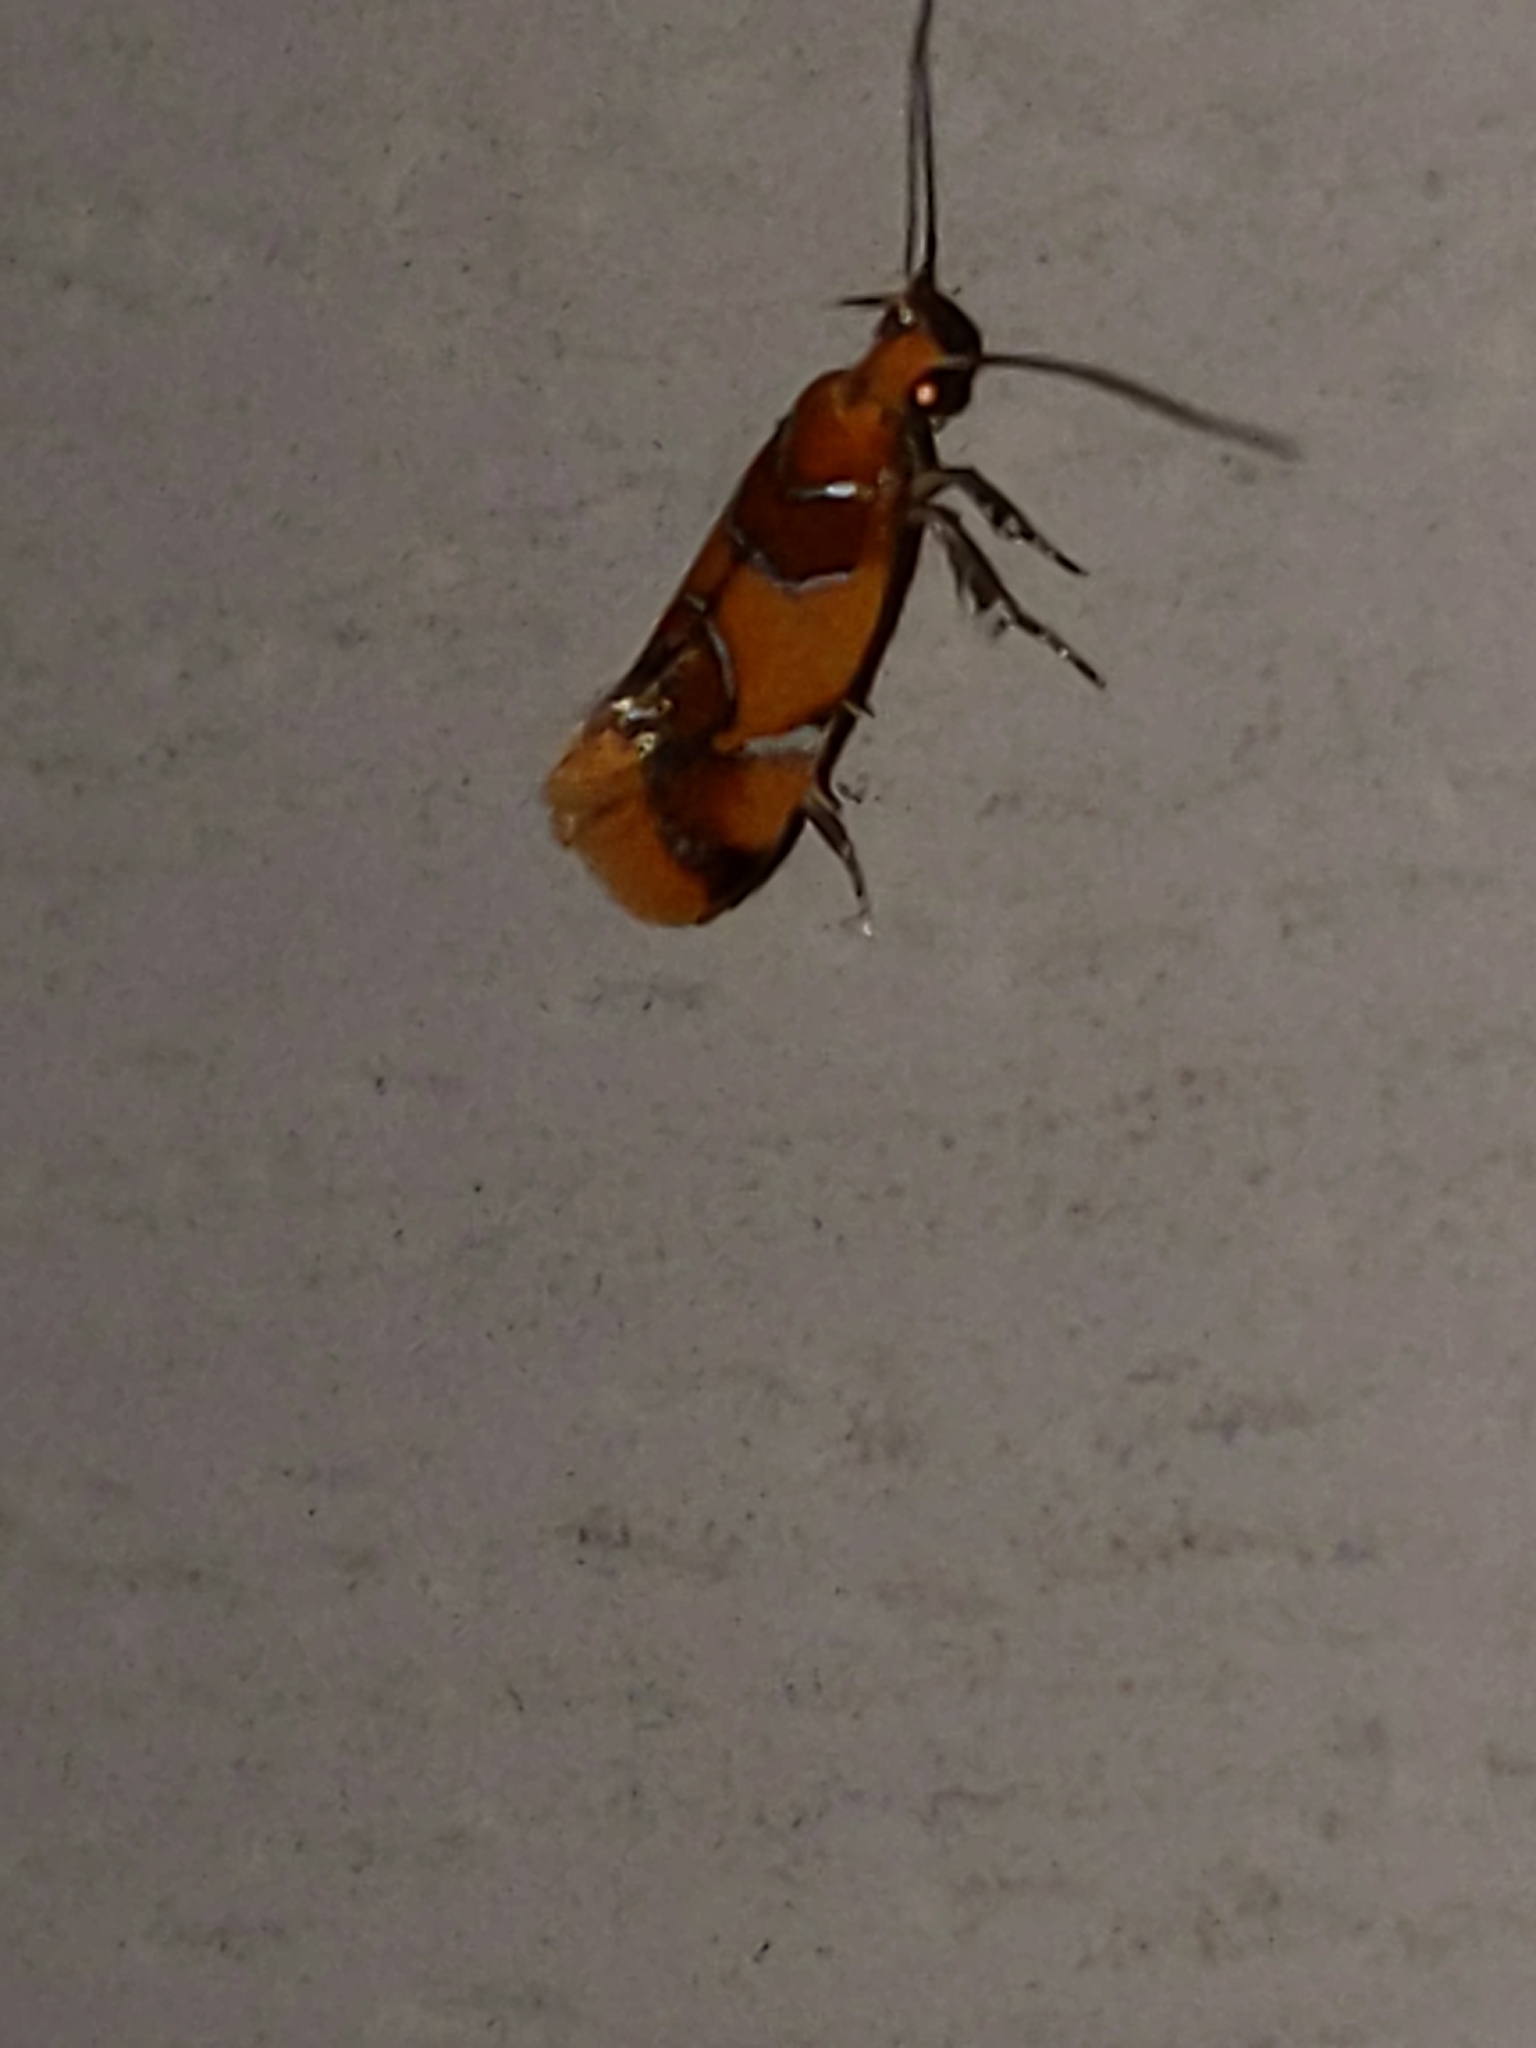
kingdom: Animalia
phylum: Arthropoda
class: Insecta
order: Lepidoptera
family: Oecophoridae
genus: Callima
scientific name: Callima argenticinctella
